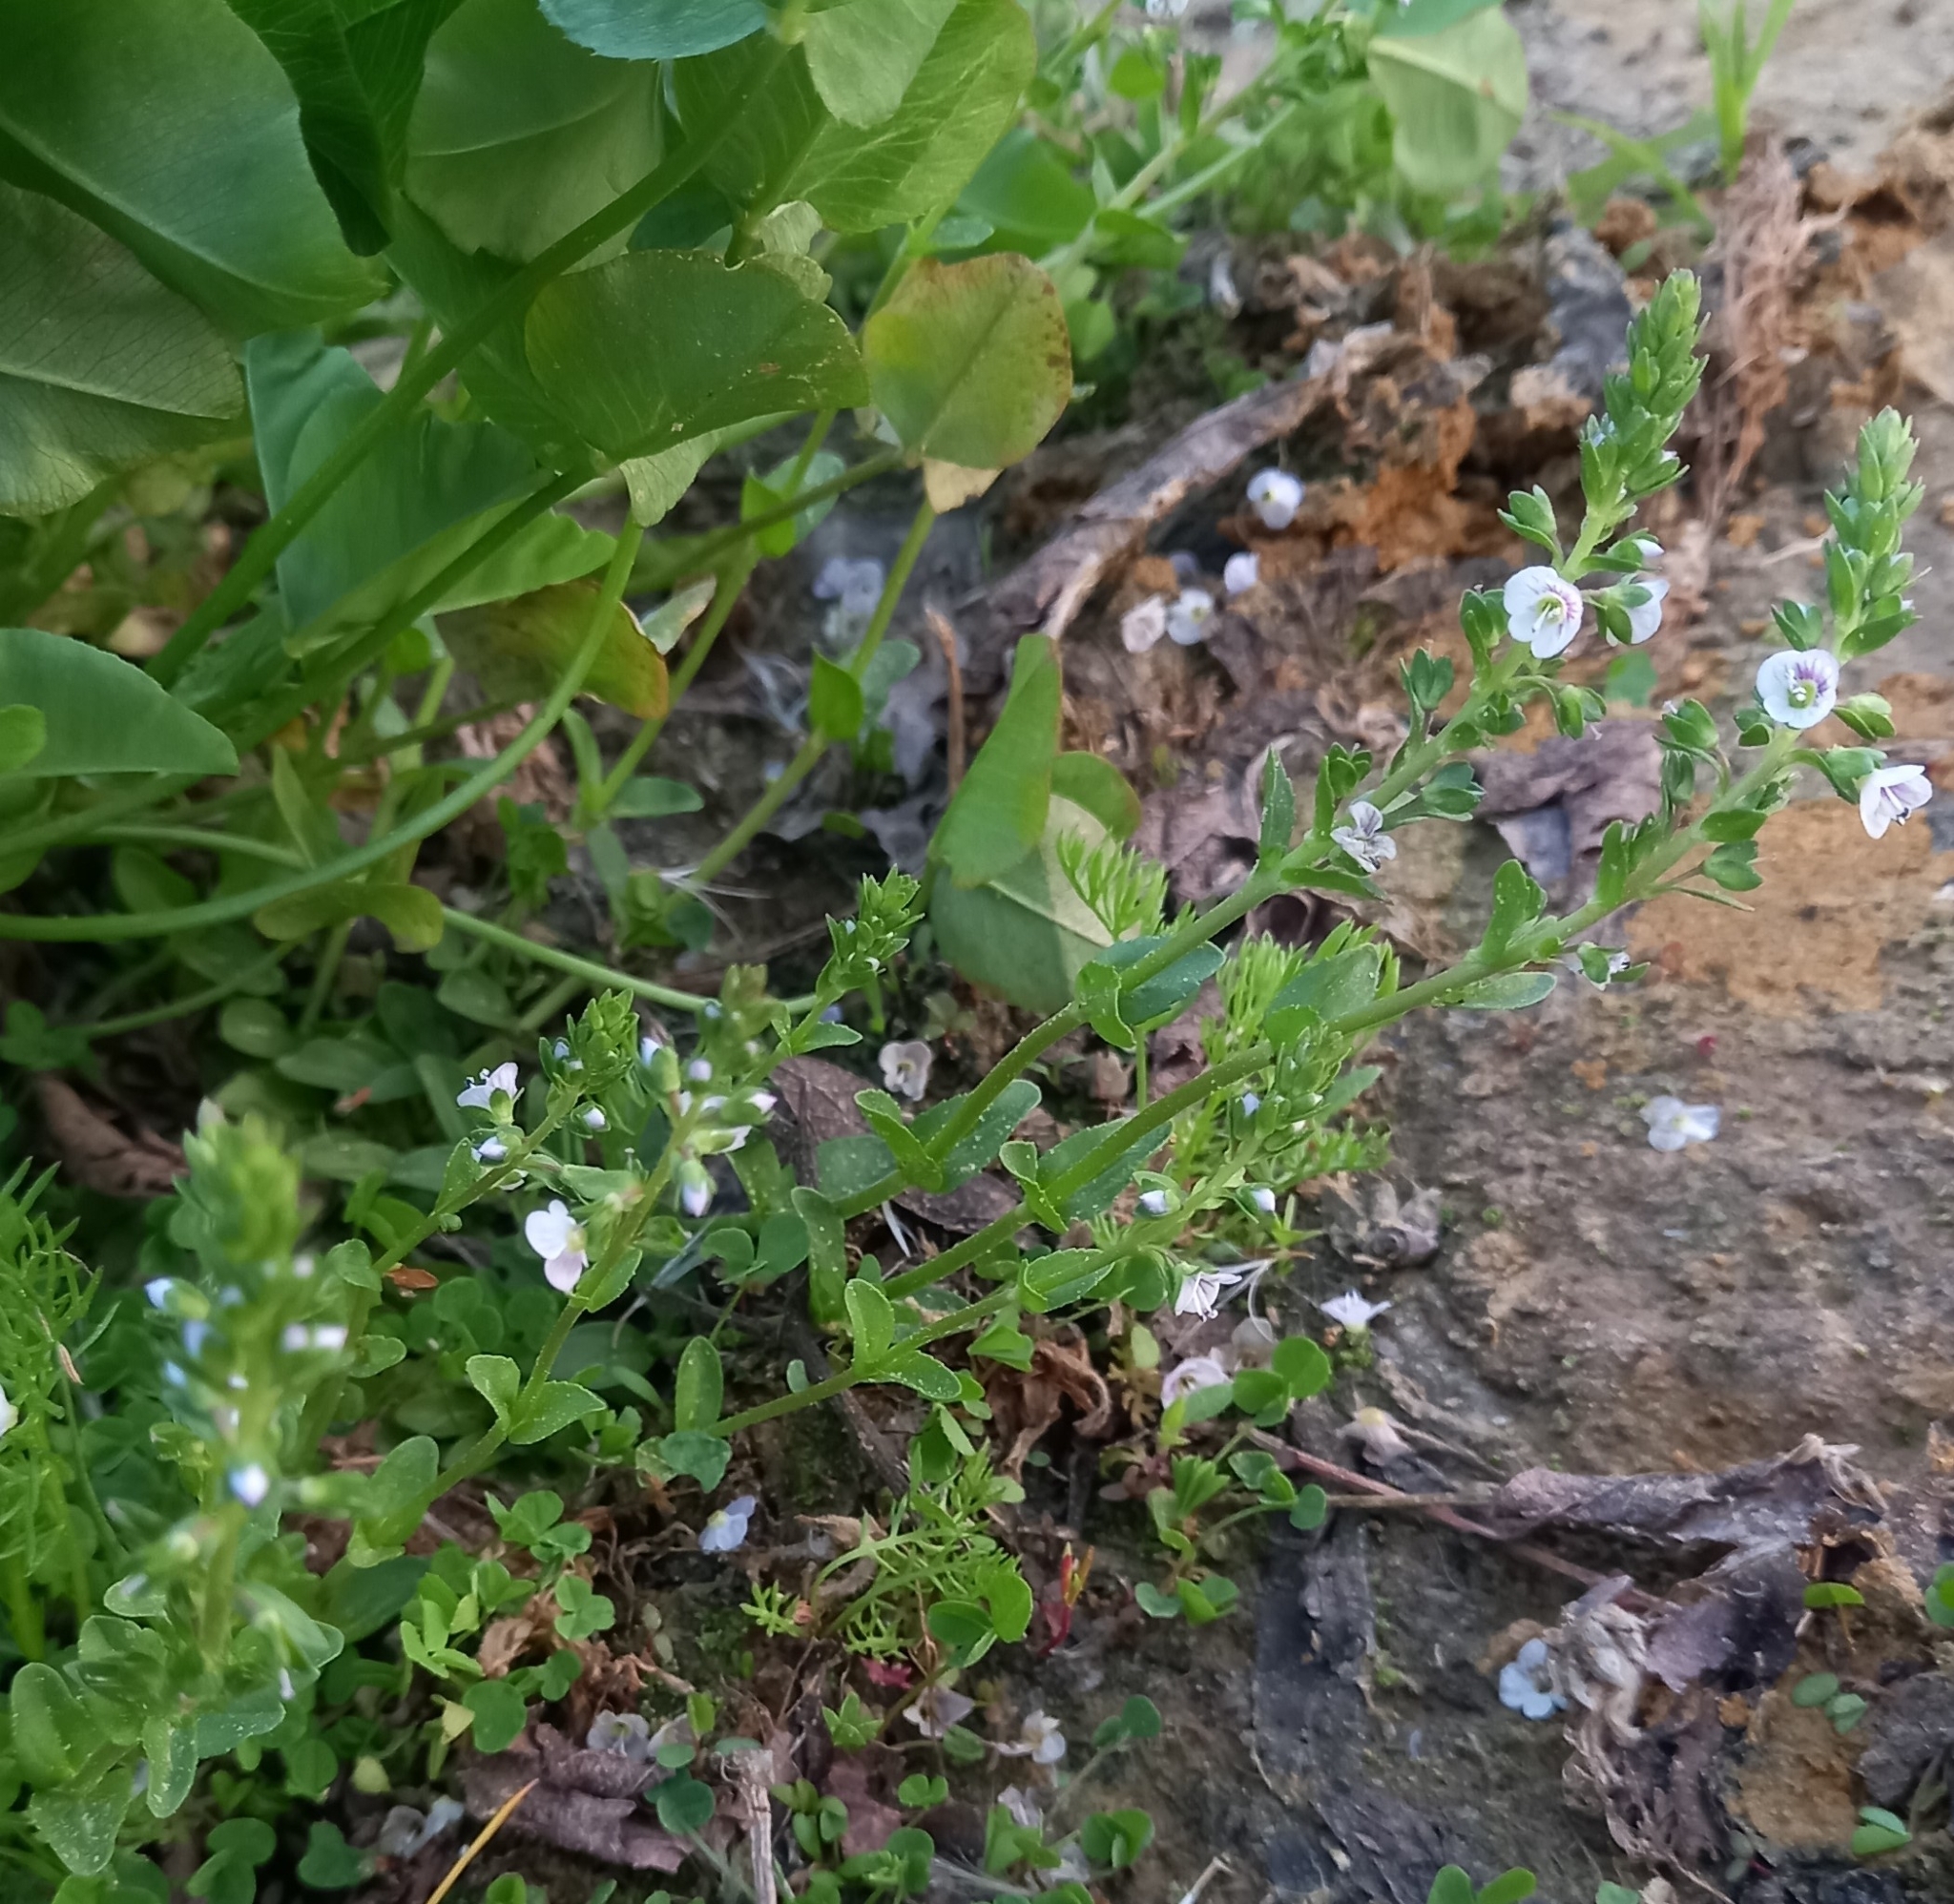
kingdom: Plantae
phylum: Tracheophyta
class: Magnoliopsida
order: Lamiales
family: Plantaginaceae
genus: Veronica
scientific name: Veronica serpyllifolia
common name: Thyme-leaved speedwell
